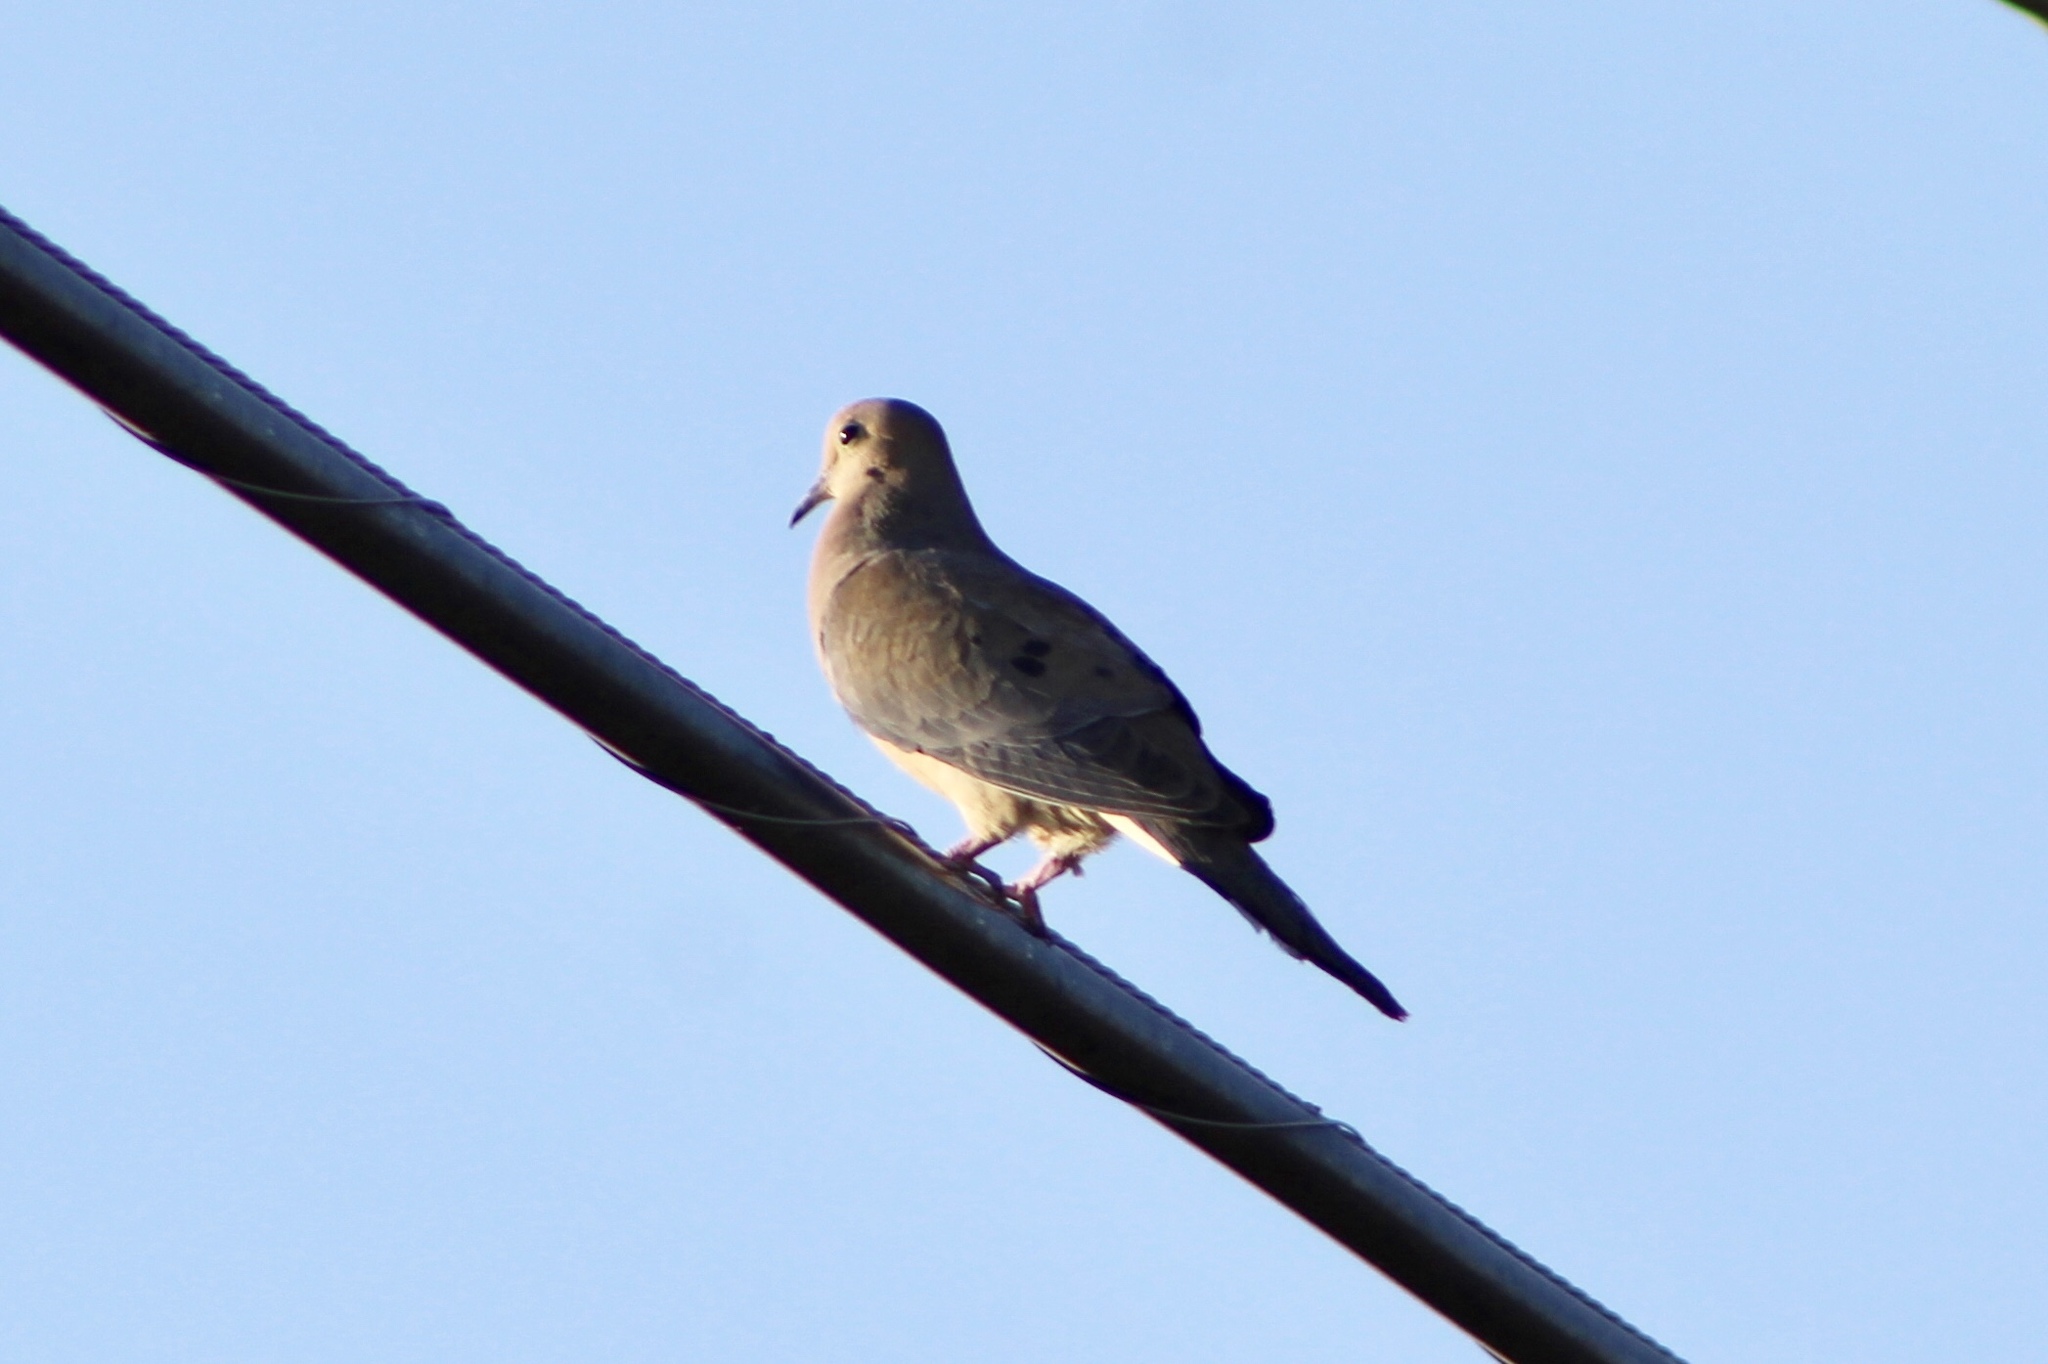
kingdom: Animalia
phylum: Chordata
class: Aves
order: Columbiformes
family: Columbidae
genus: Zenaida
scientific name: Zenaida macroura
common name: Mourning dove
